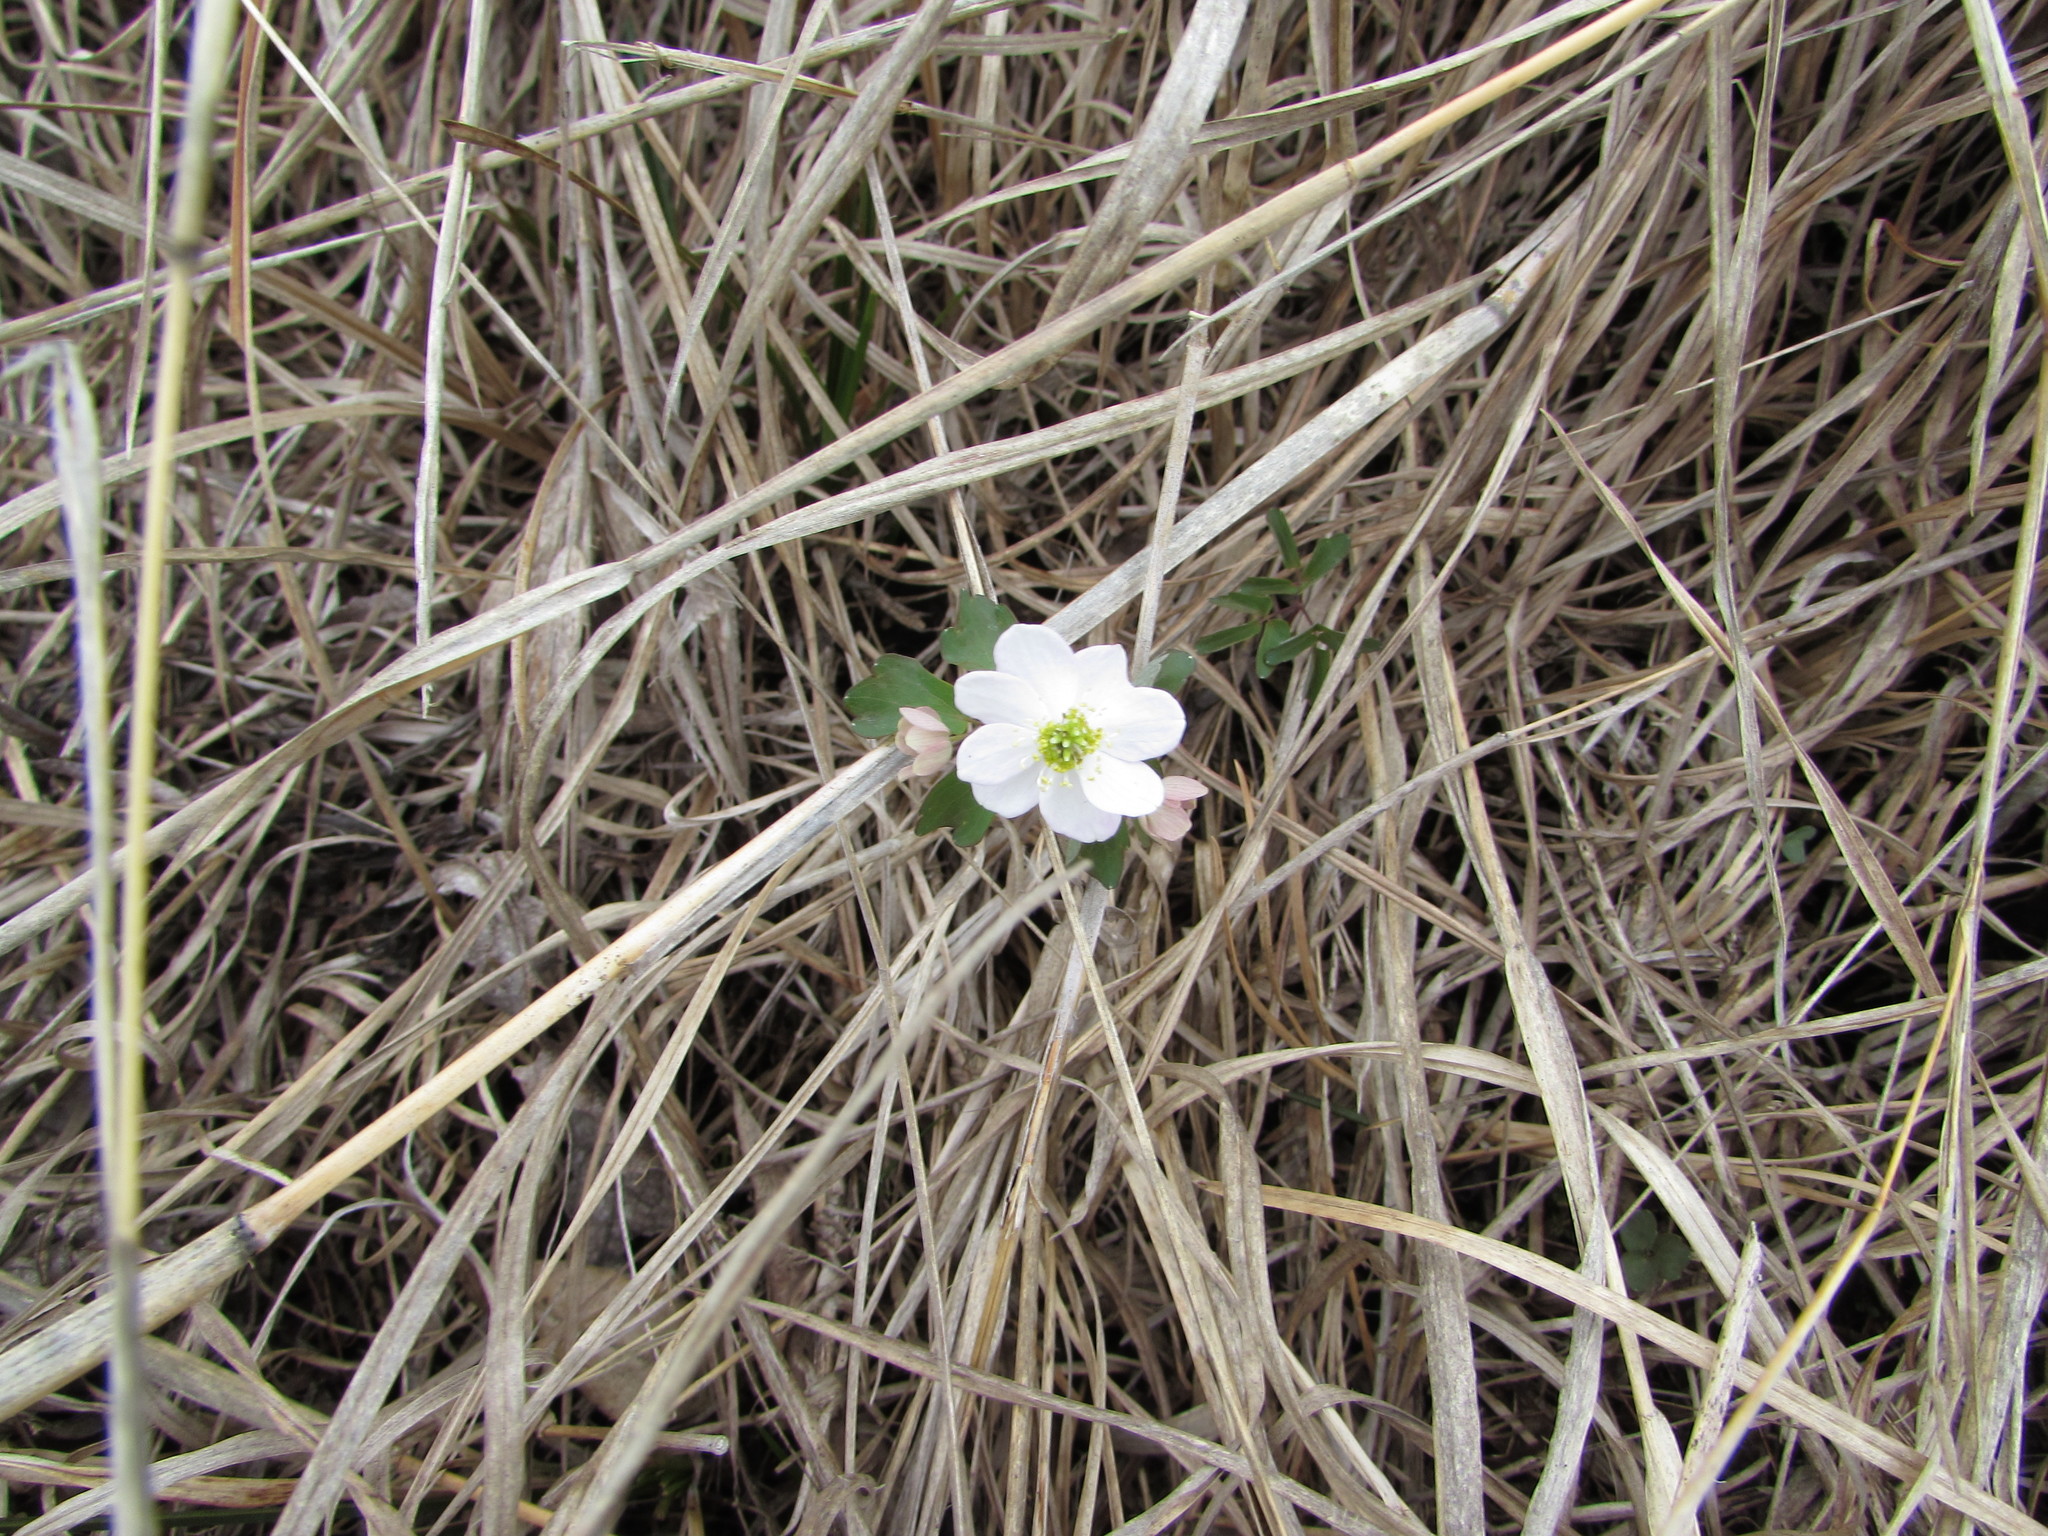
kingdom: Plantae
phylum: Tracheophyta
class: Magnoliopsida
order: Ranunculales
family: Ranunculaceae
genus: Thalictrum
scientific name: Thalictrum thalictroides
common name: Rue-anemone
